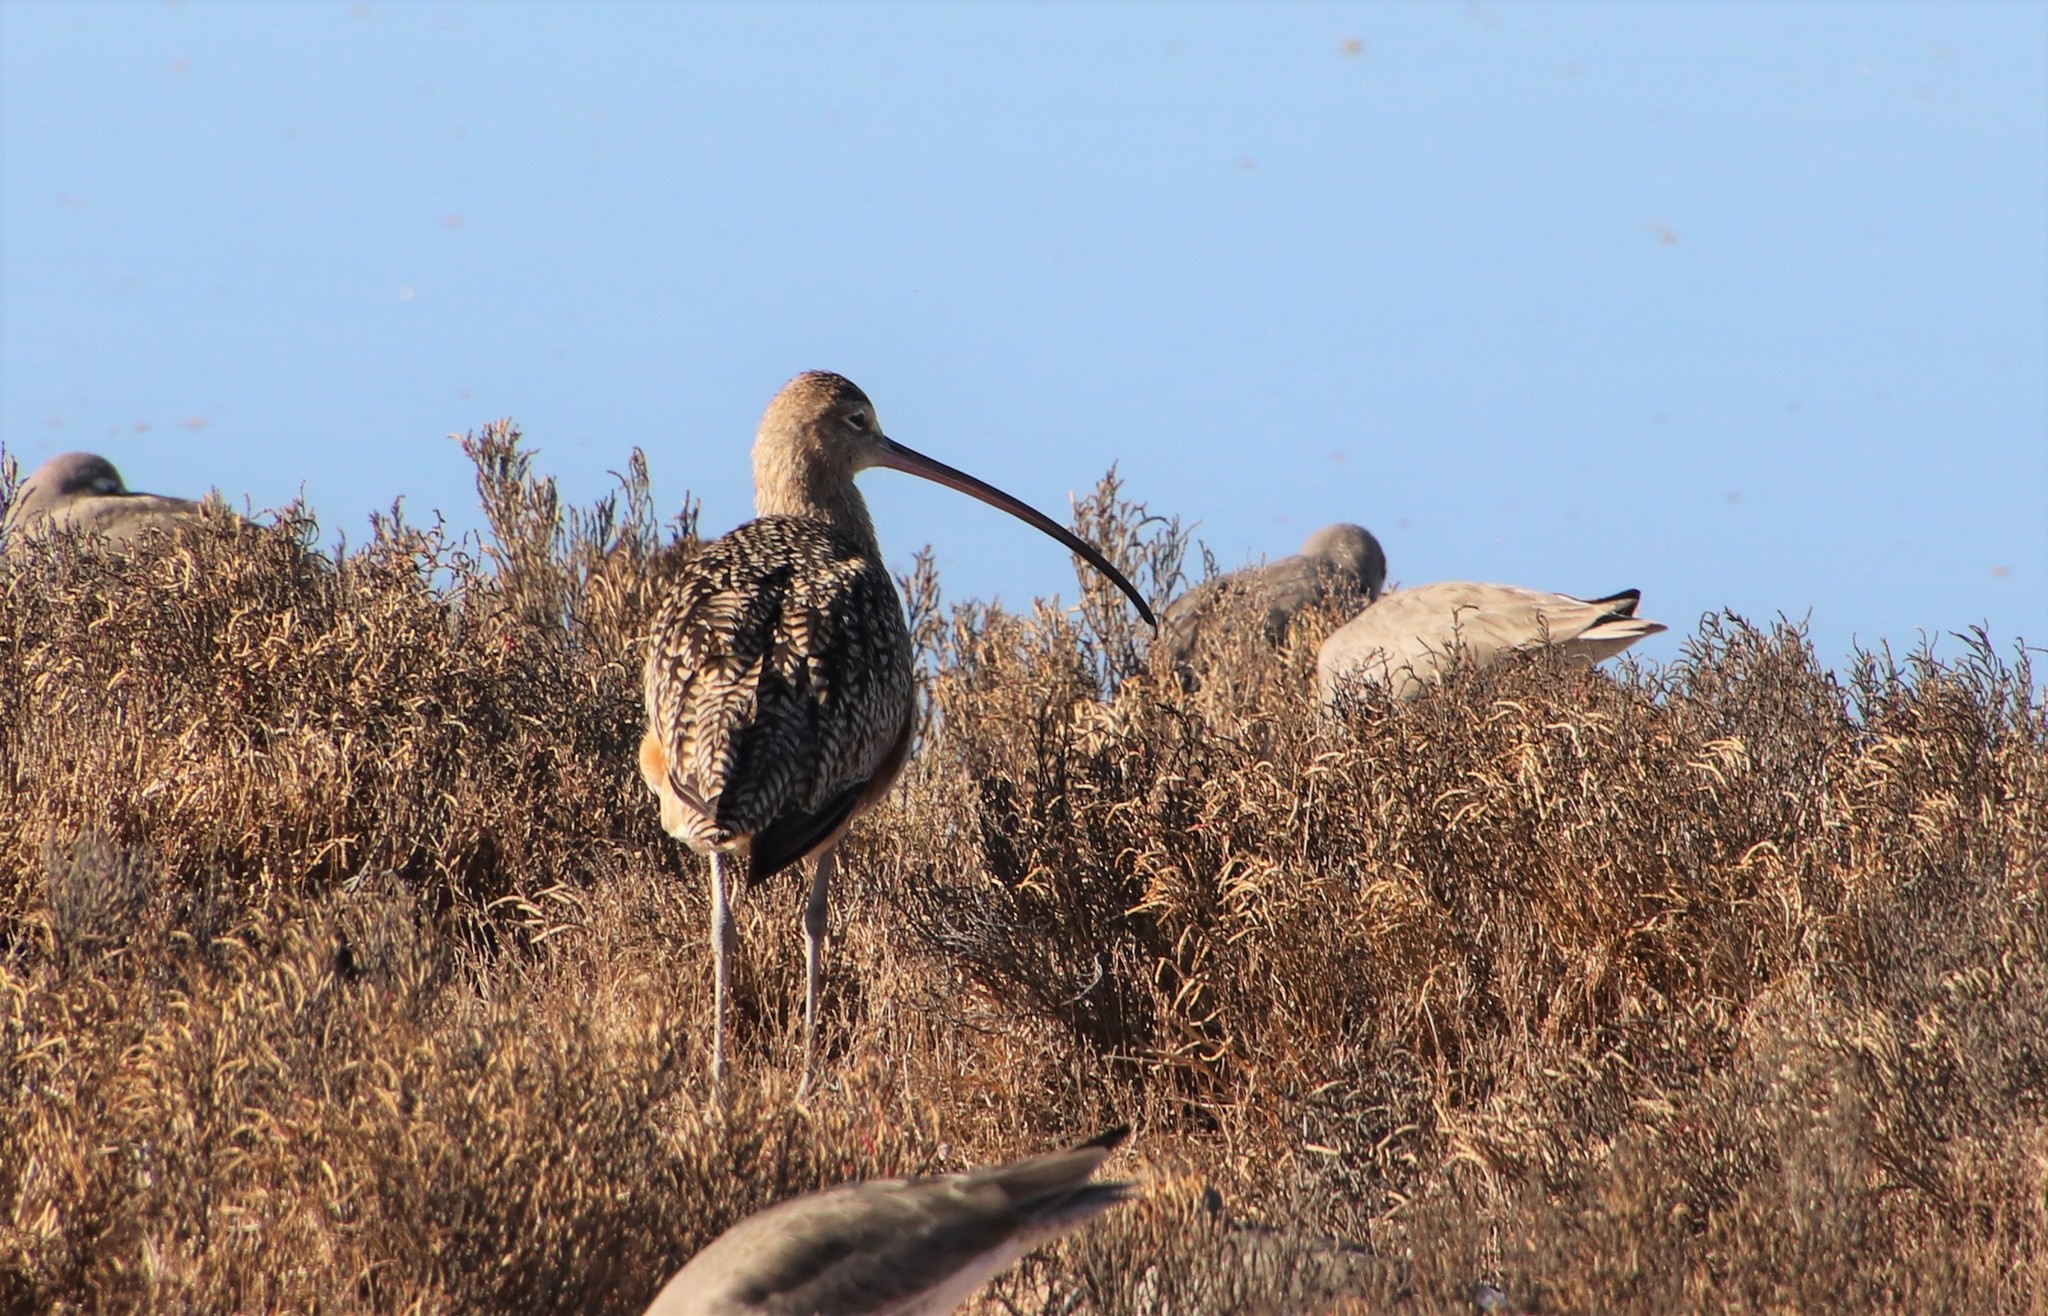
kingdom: Animalia
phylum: Chordata
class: Aves
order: Charadriiformes
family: Scolopacidae
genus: Numenius
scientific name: Numenius americanus
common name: Long-billed curlew
